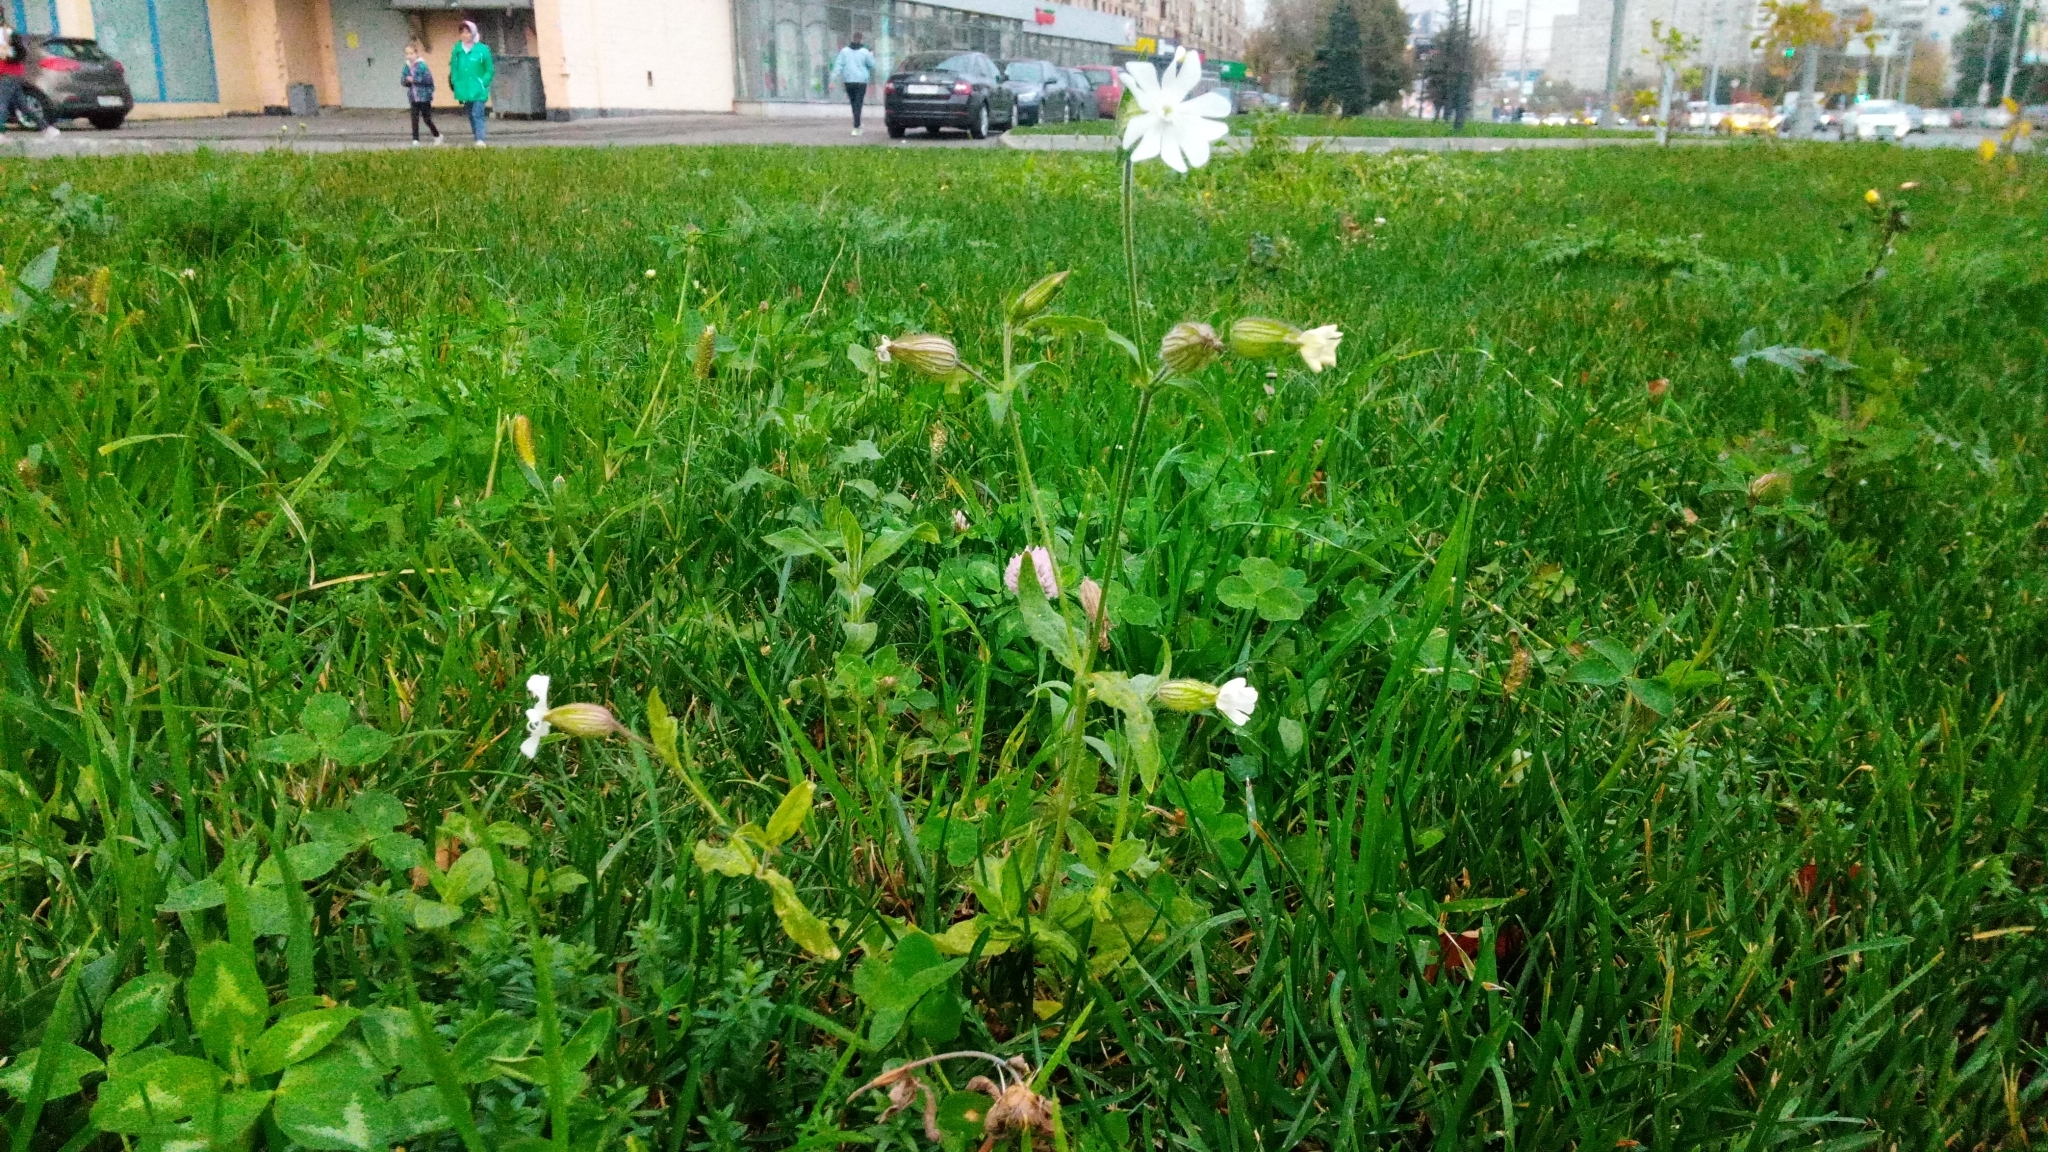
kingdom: Plantae
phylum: Tracheophyta
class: Magnoliopsida
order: Caryophyllales
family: Caryophyllaceae
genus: Silene
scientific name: Silene latifolia
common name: White campion
